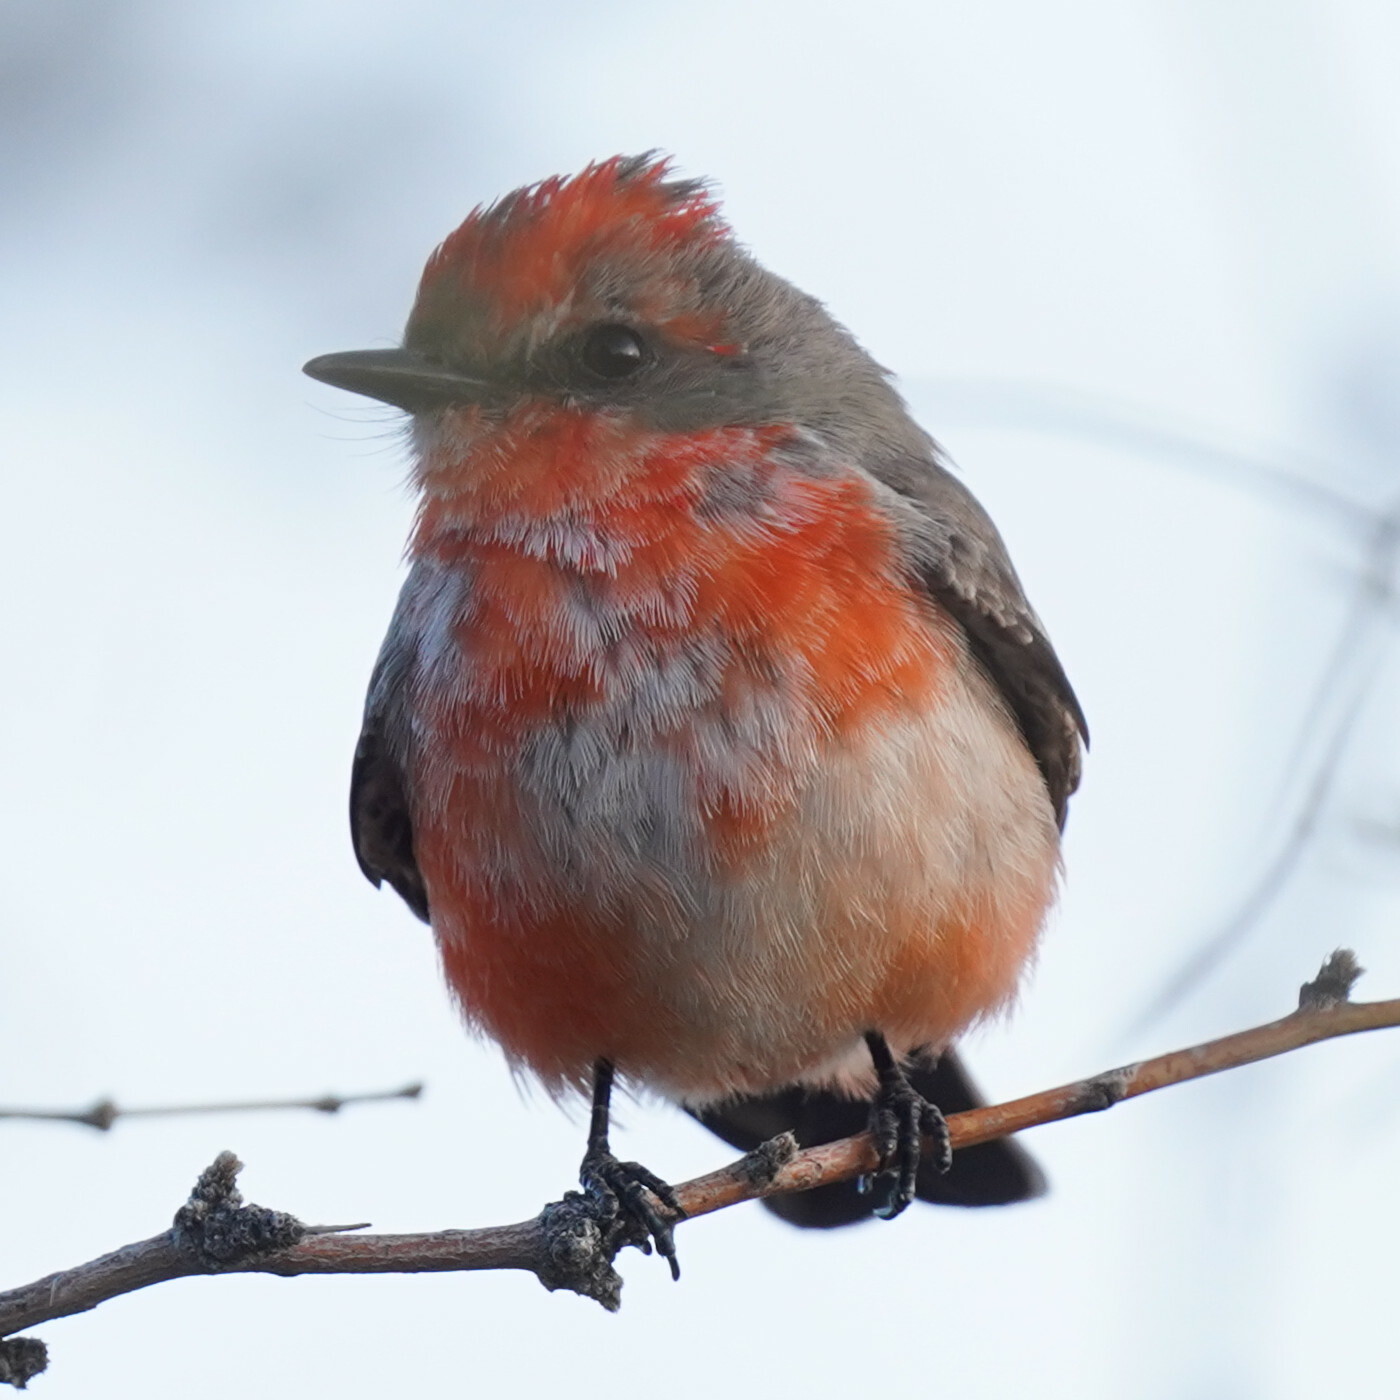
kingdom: Animalia
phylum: Chordata
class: Aves
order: Passeriformes
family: Tyrannidae
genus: Pyrocephalus
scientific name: Pyrocephalus rubinus
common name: Vermilion flycatcher
